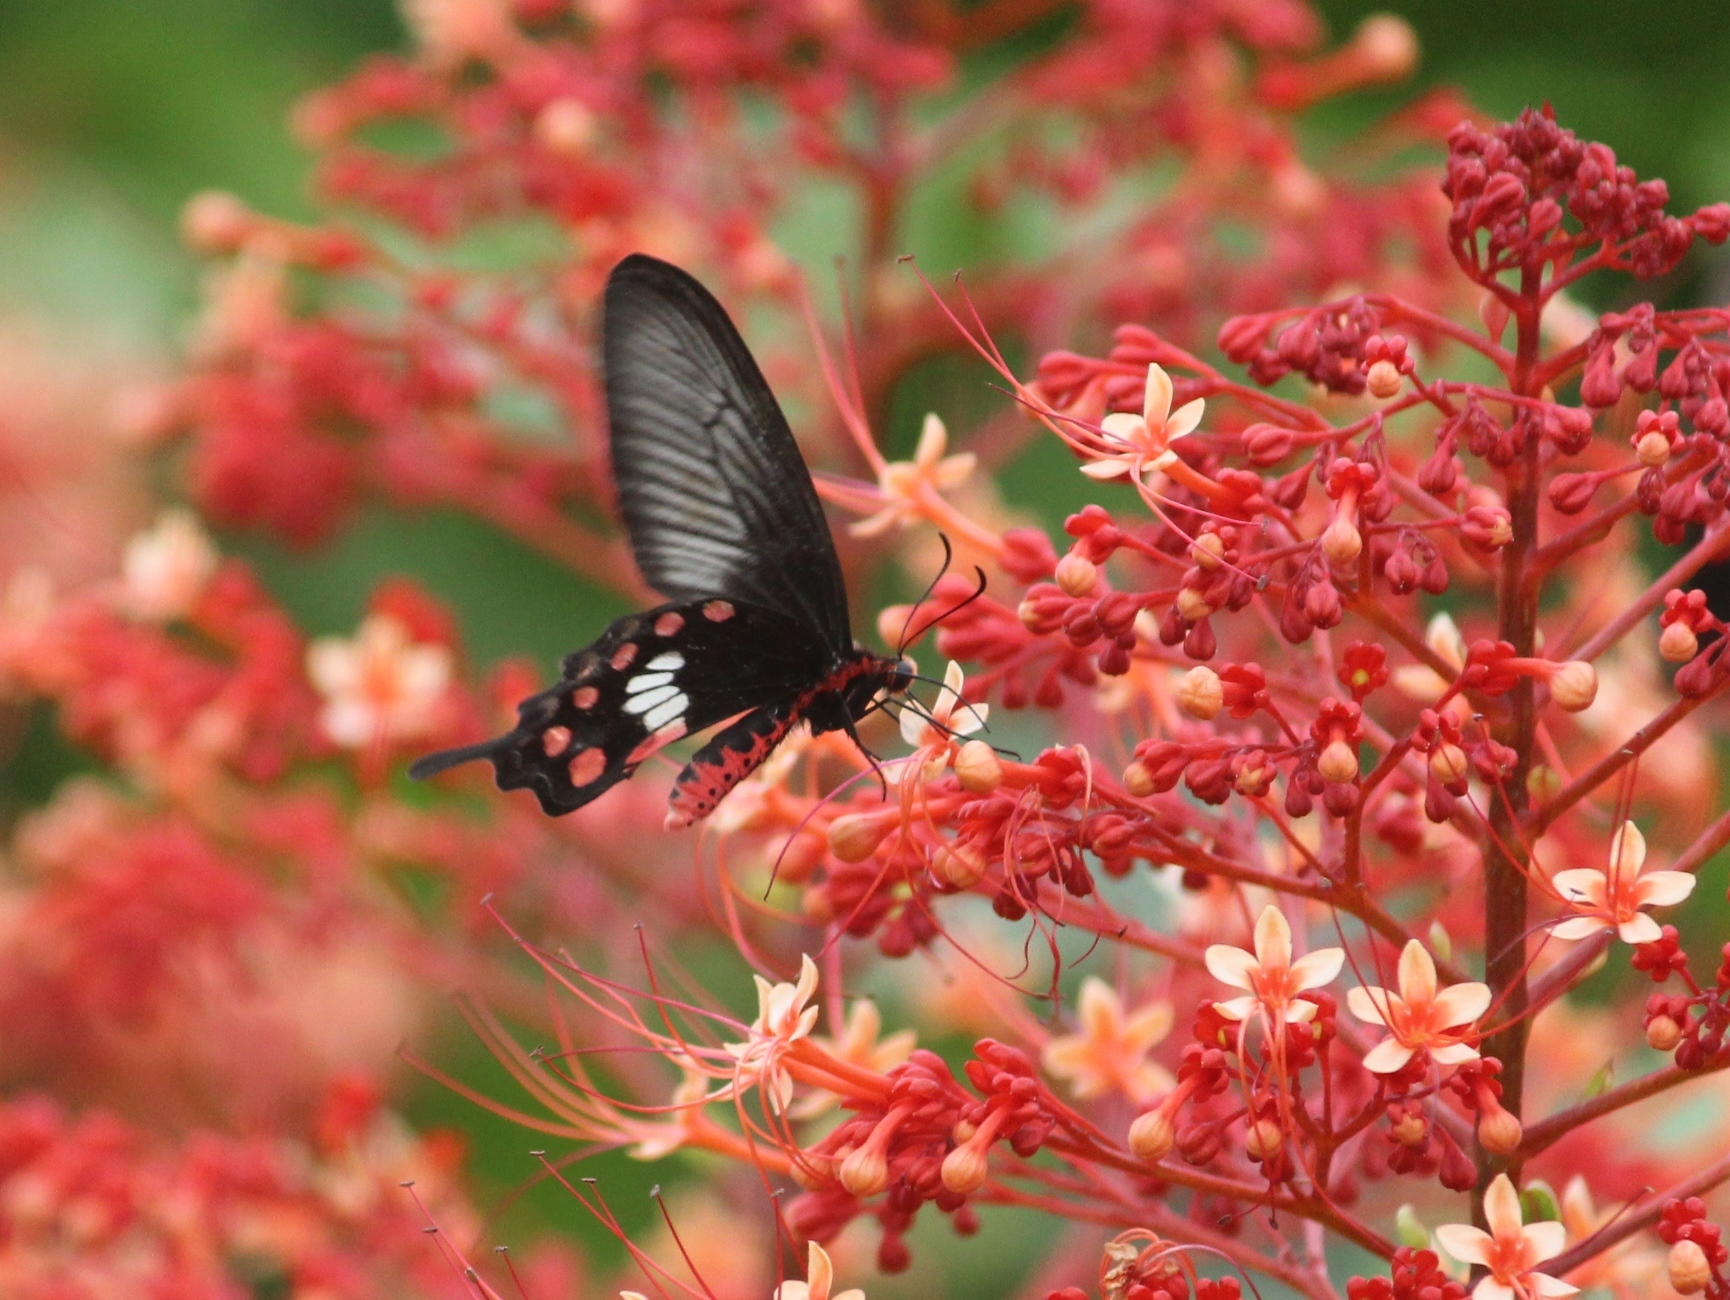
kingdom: Animalia
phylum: Arthropoda
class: Insecta
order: Lepidoptera
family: Papilionidae
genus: Pachliopta
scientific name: Pachliopta aristolochiae
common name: Common rose
